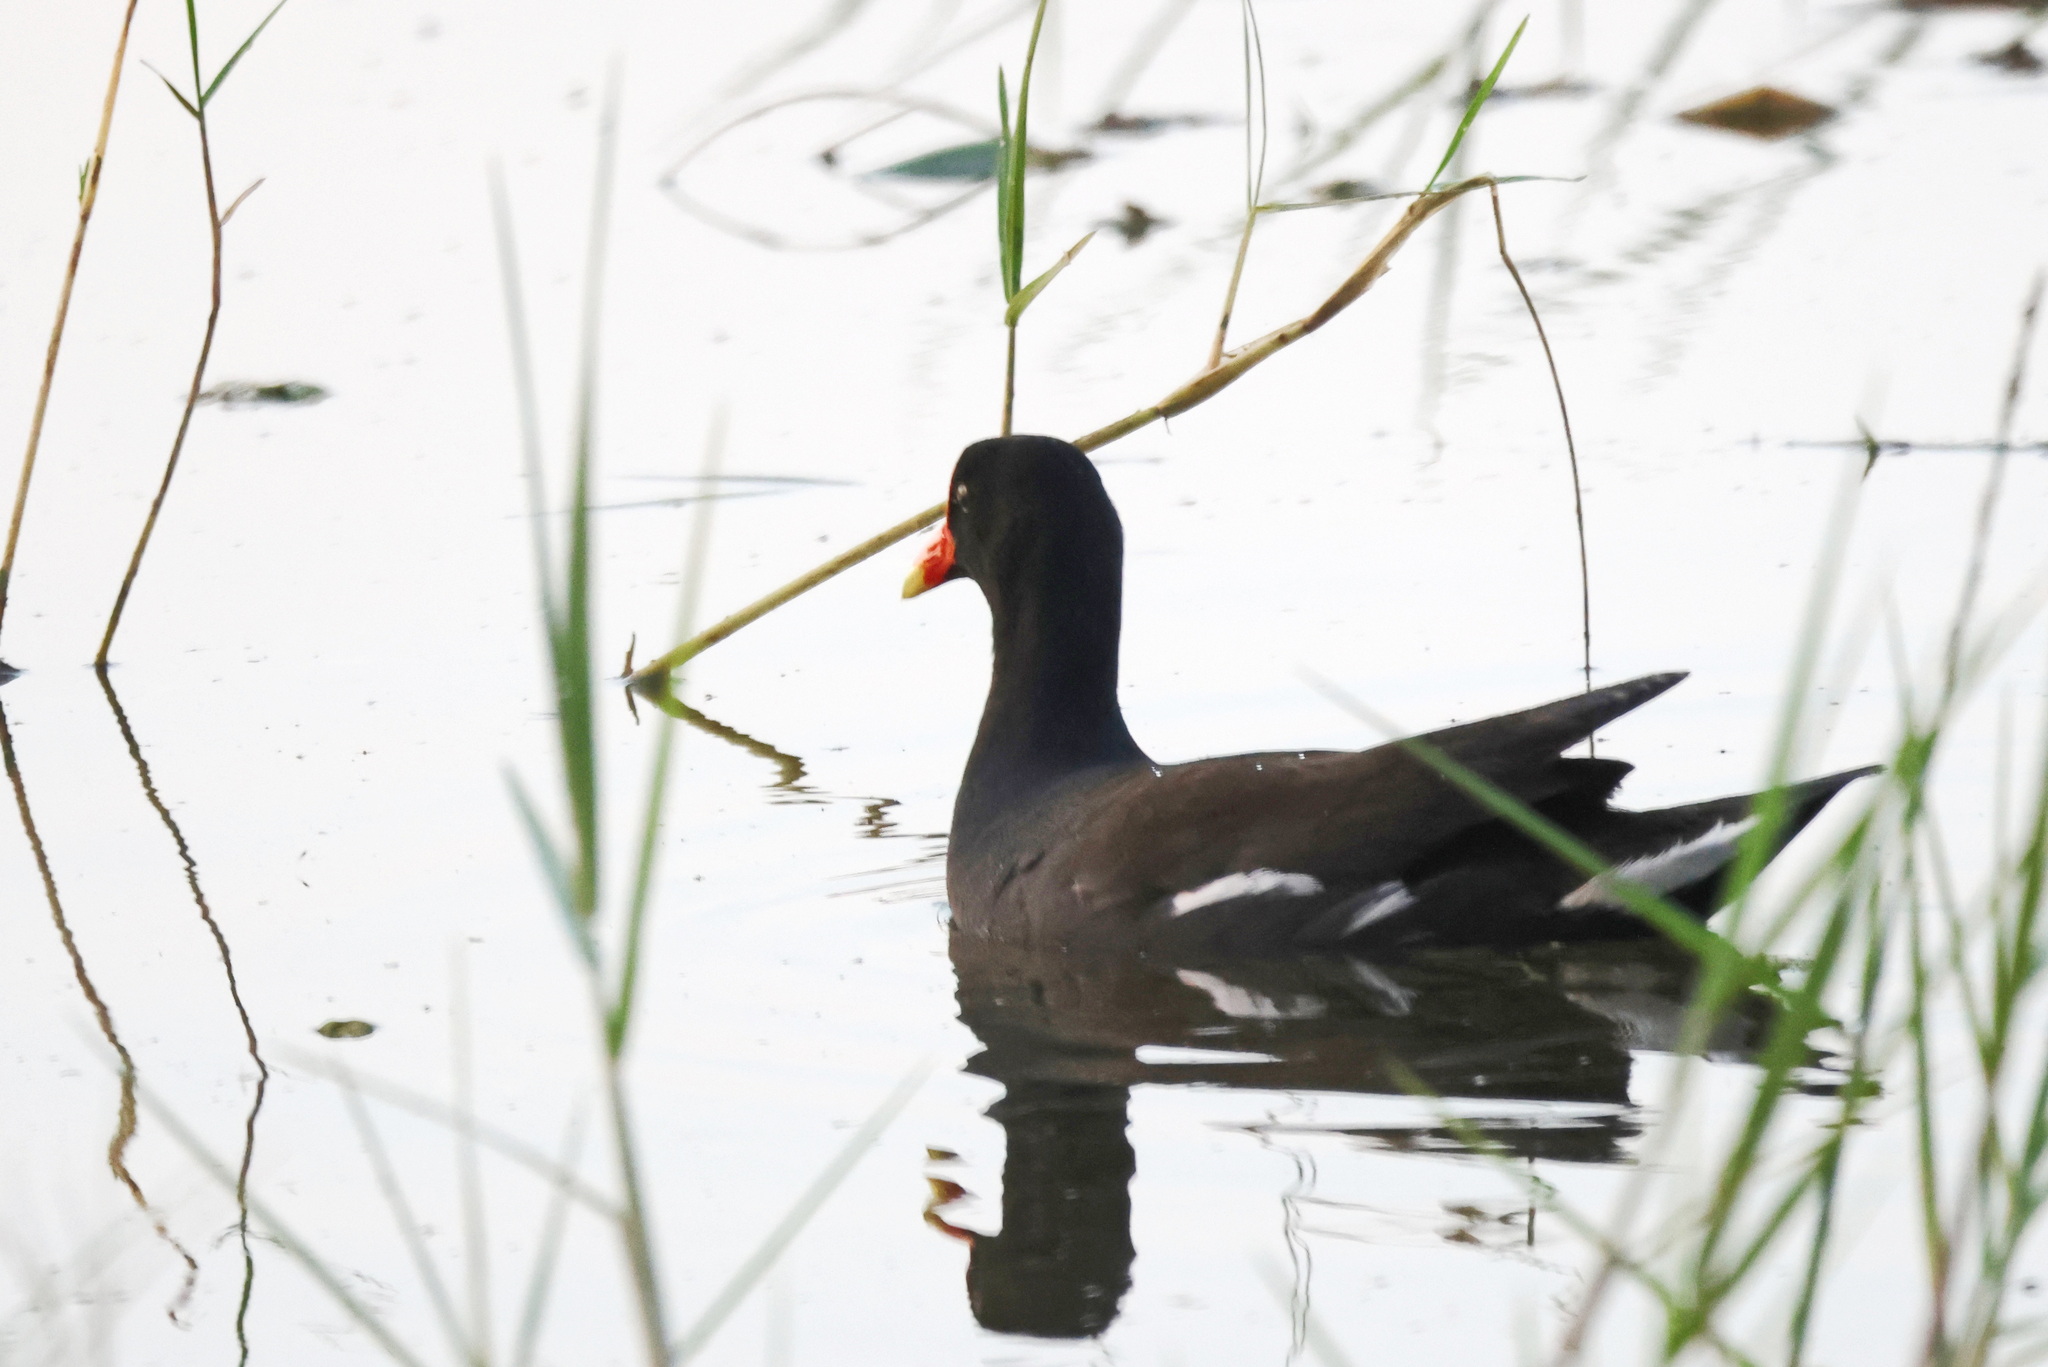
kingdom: Animalia
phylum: Chordata
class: Aves
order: Gruiformes
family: Rallidae
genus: Gallinula
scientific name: Gallinula chloropus
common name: Common moorhen
